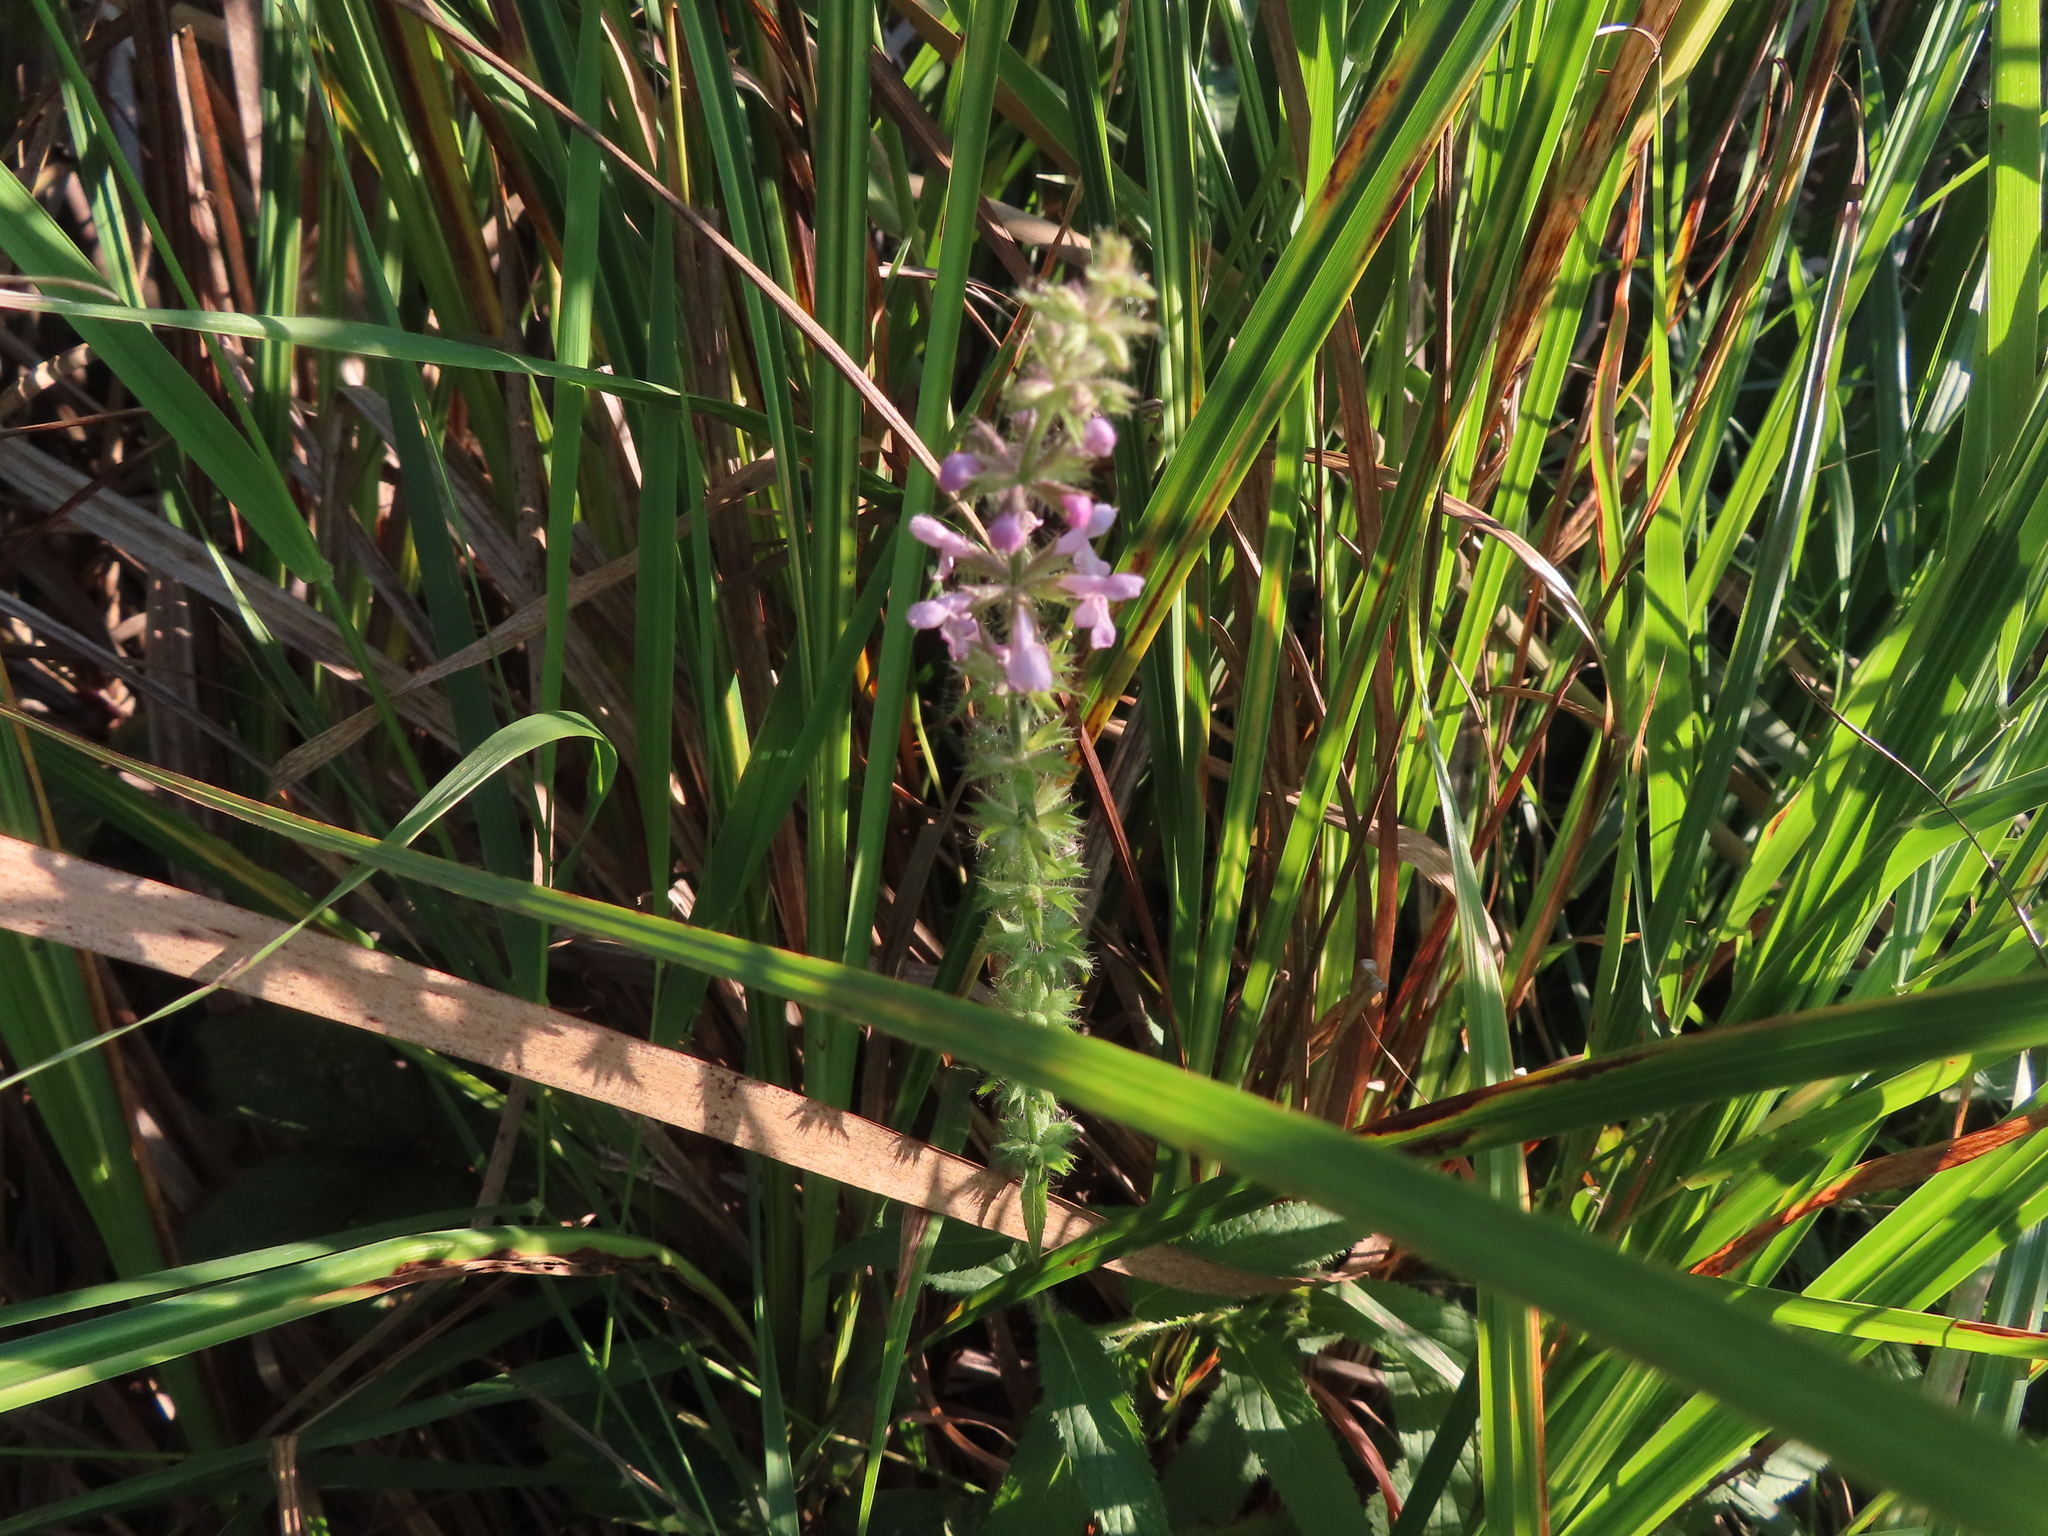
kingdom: Plantae
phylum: Tracheophyta
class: Magnoliopsida
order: Lamiales
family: Lamiaceae
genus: Stachys
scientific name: Stachys hispida
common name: Hispid hedge-nettle
